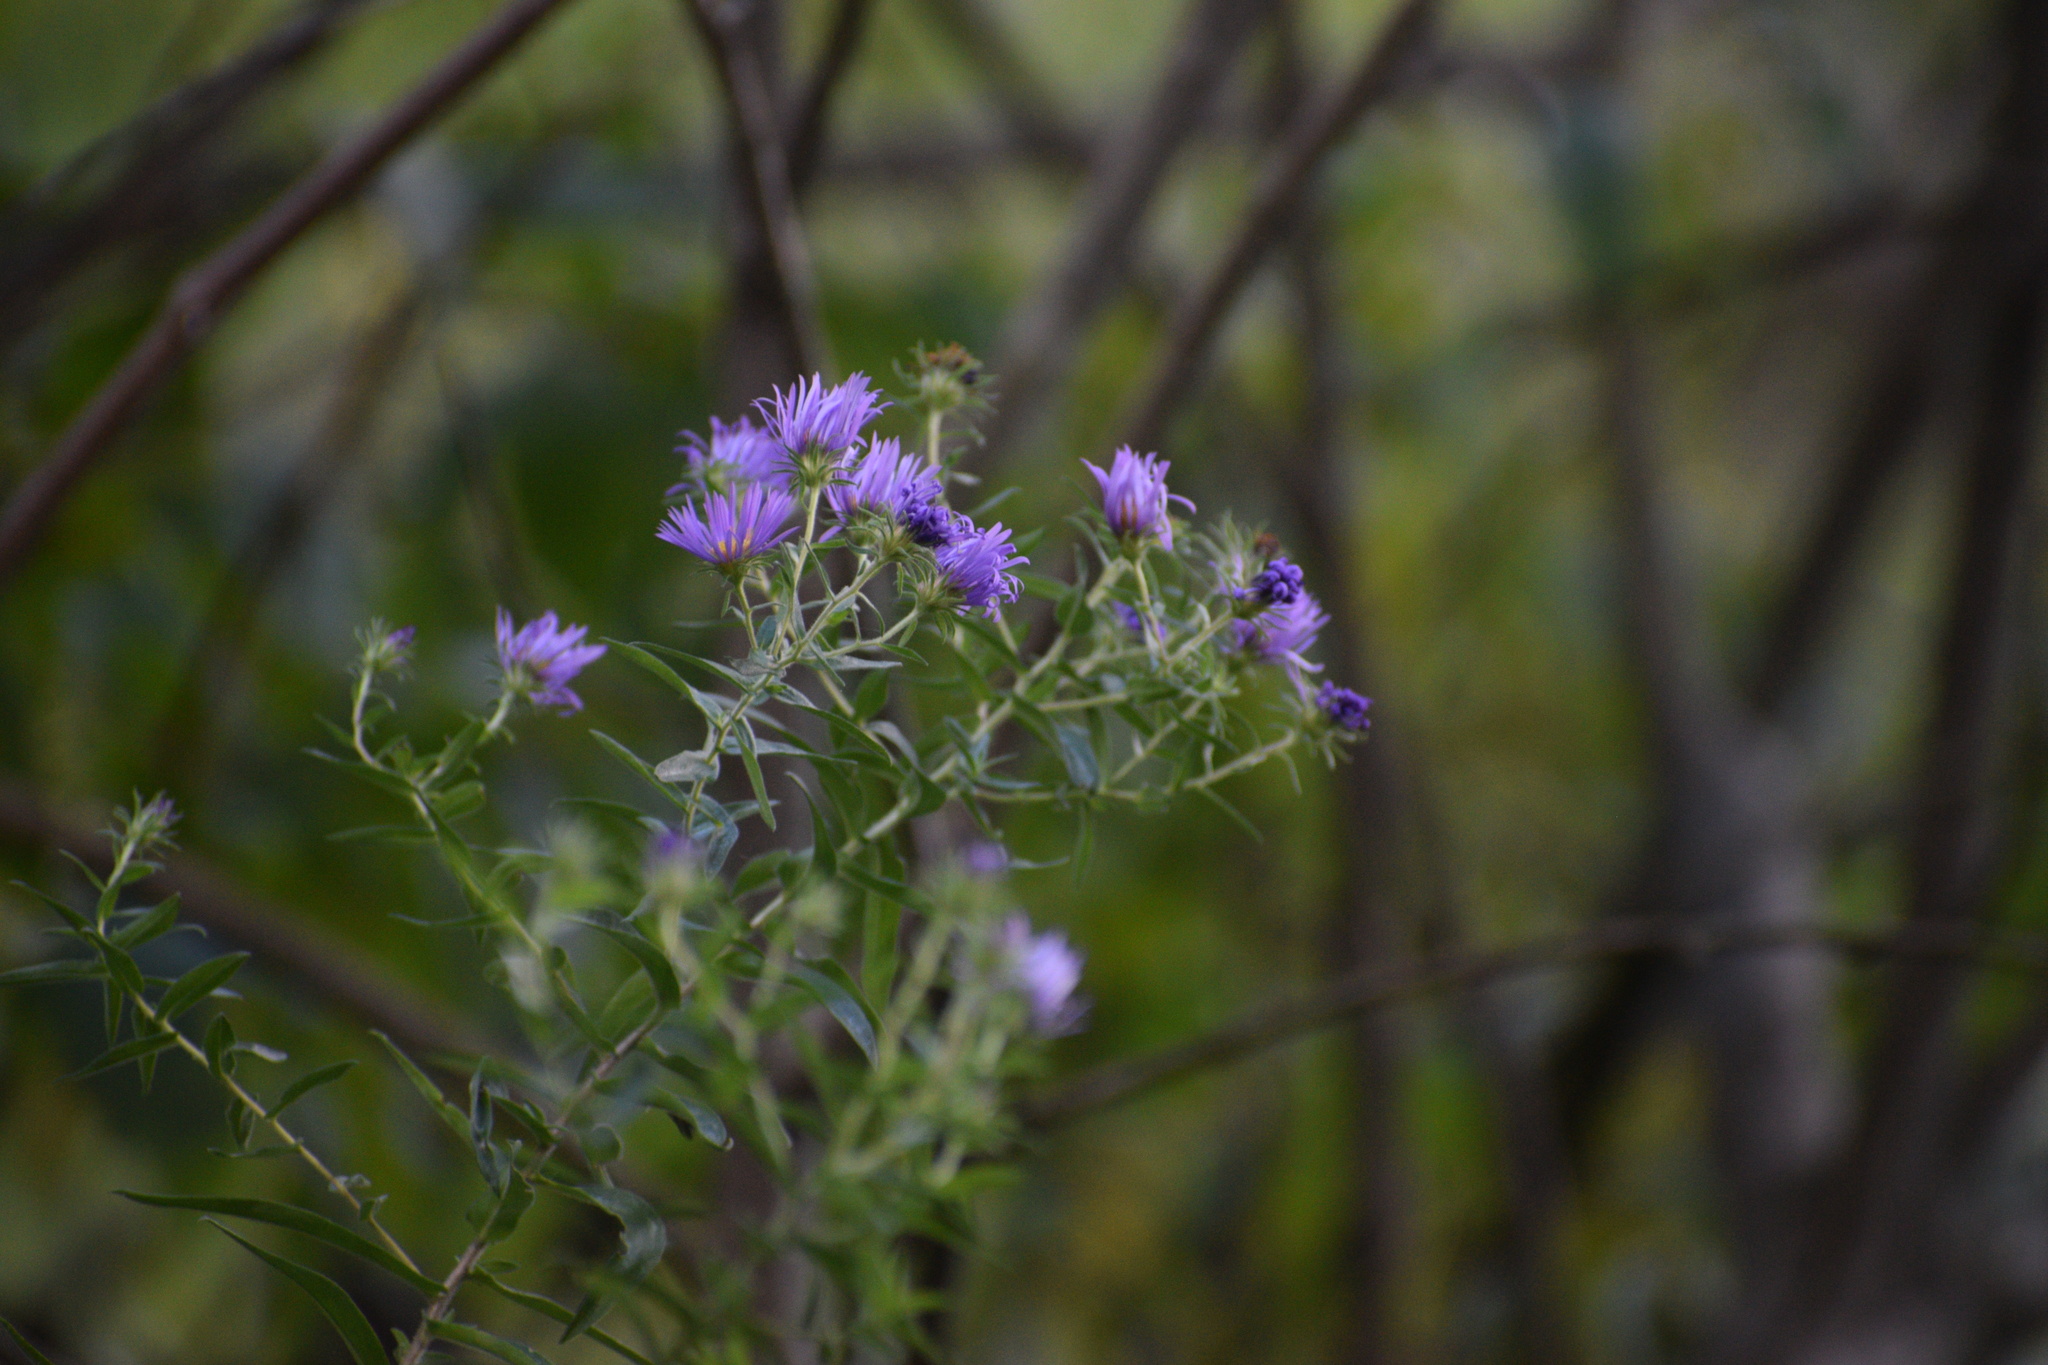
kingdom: Plantae
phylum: Tracheophyta
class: Magnoliopsida
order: Asterales
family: Asteraceae
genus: Symphyotrichum
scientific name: Symphyotrichum novae-angliae
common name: Michaelmas daisy
